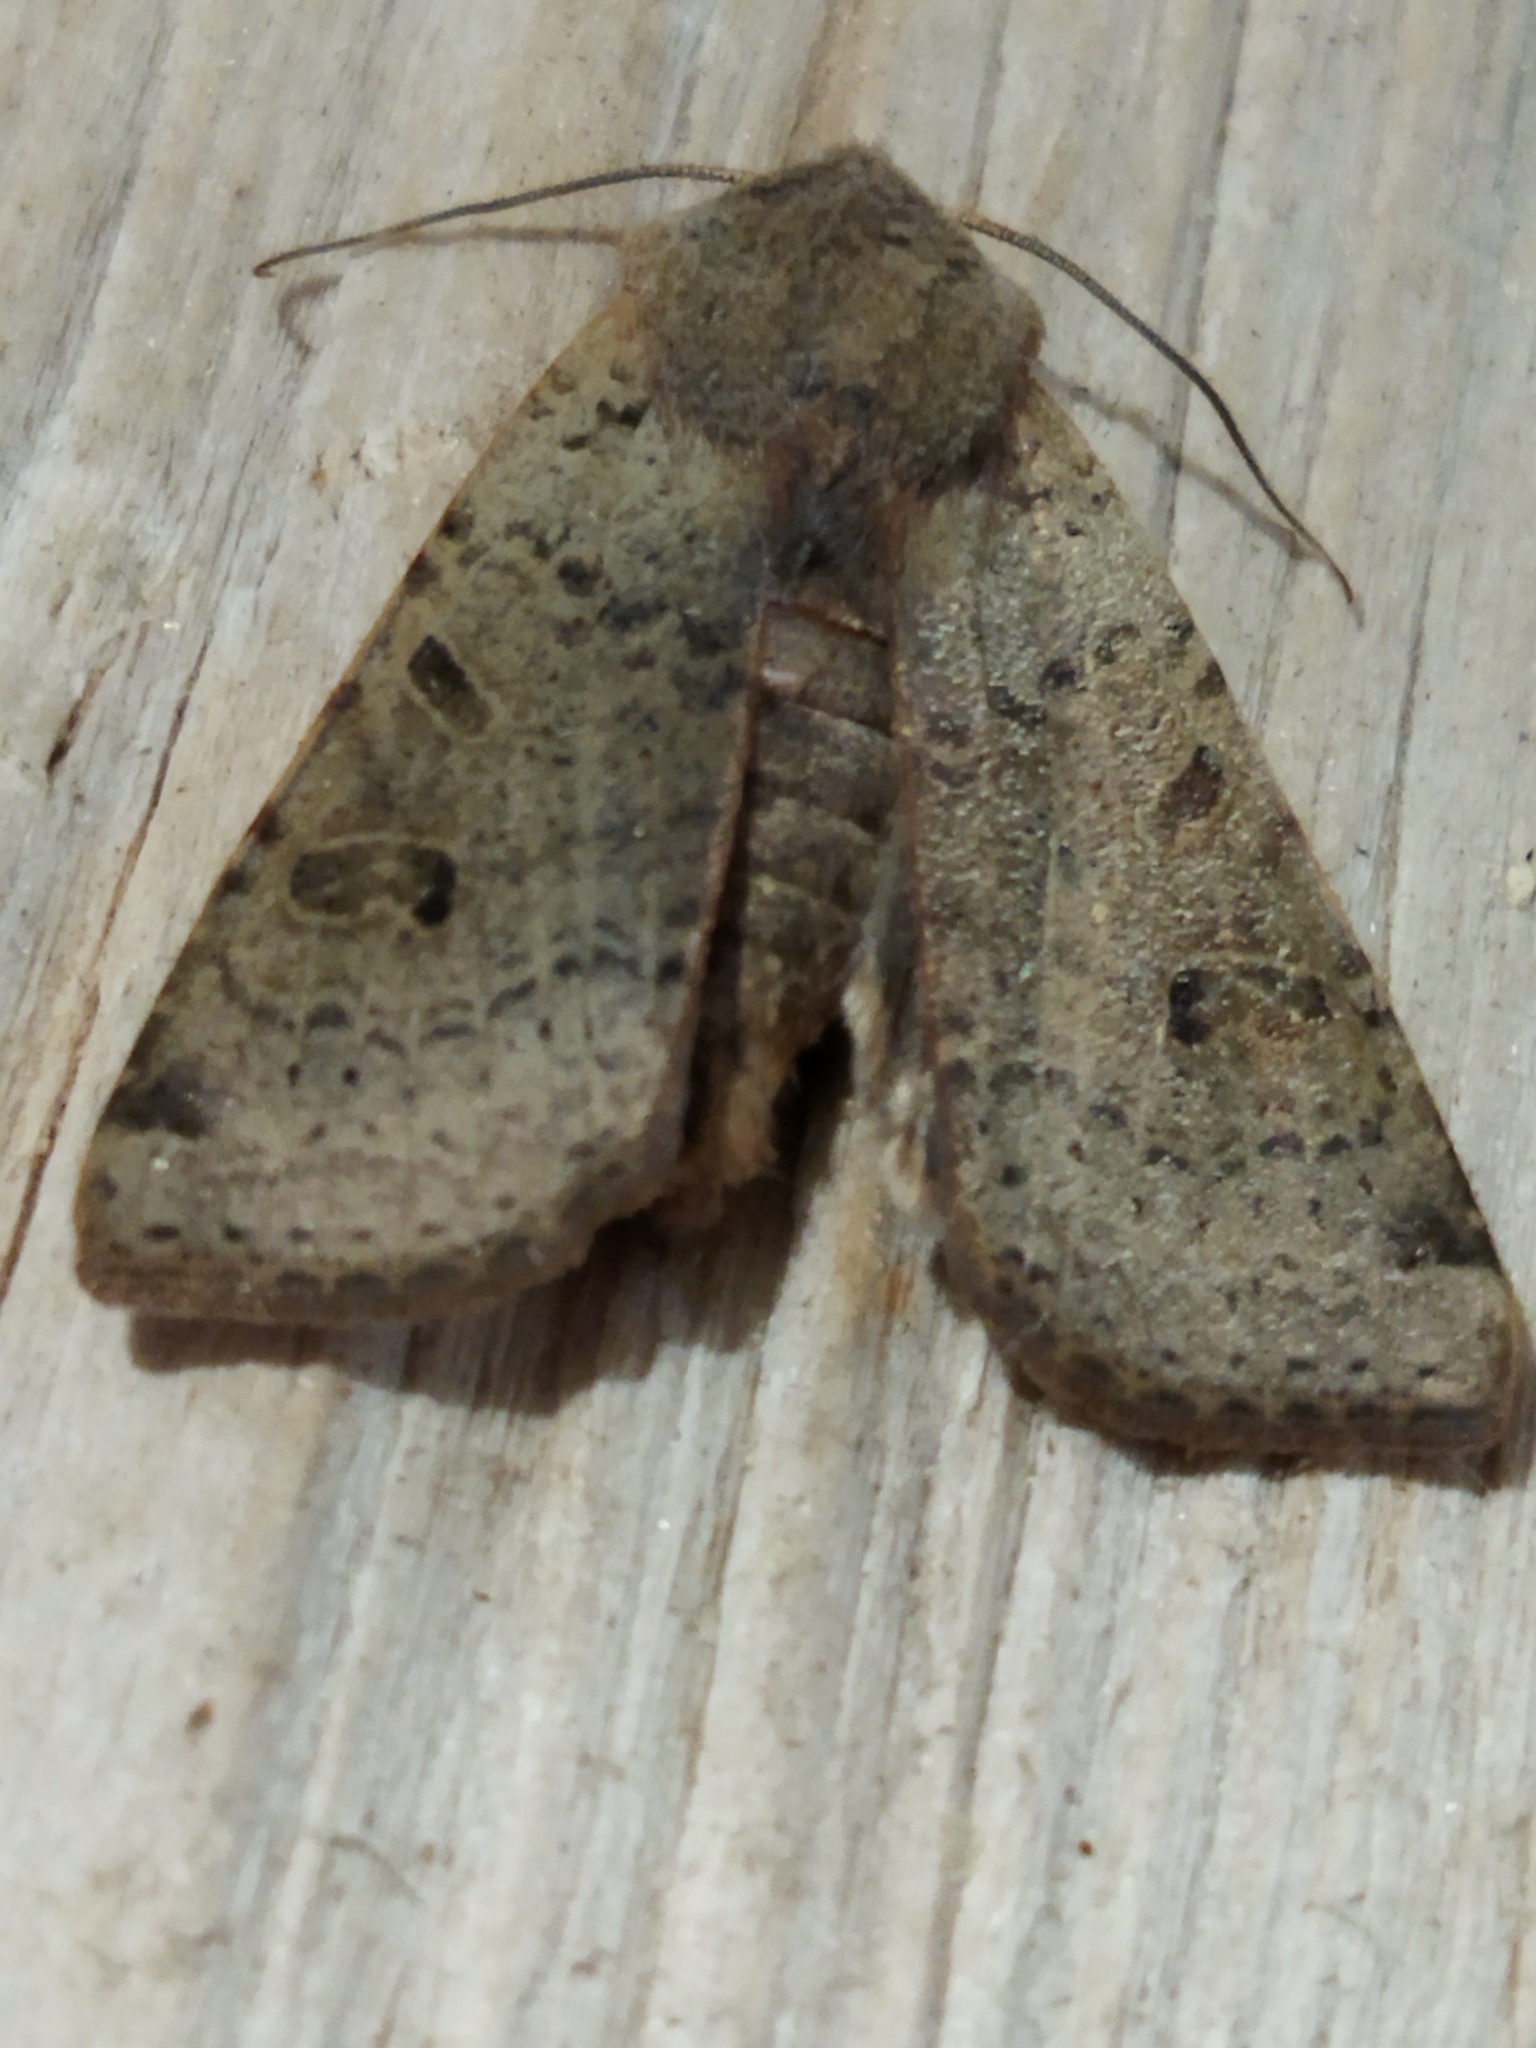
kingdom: Animalia
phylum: Arthropoda
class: Insecta
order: Lepidoptera
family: Noctuidae
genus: Agrochola
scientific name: Agrochola lychnidis
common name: Beaded chestnut
